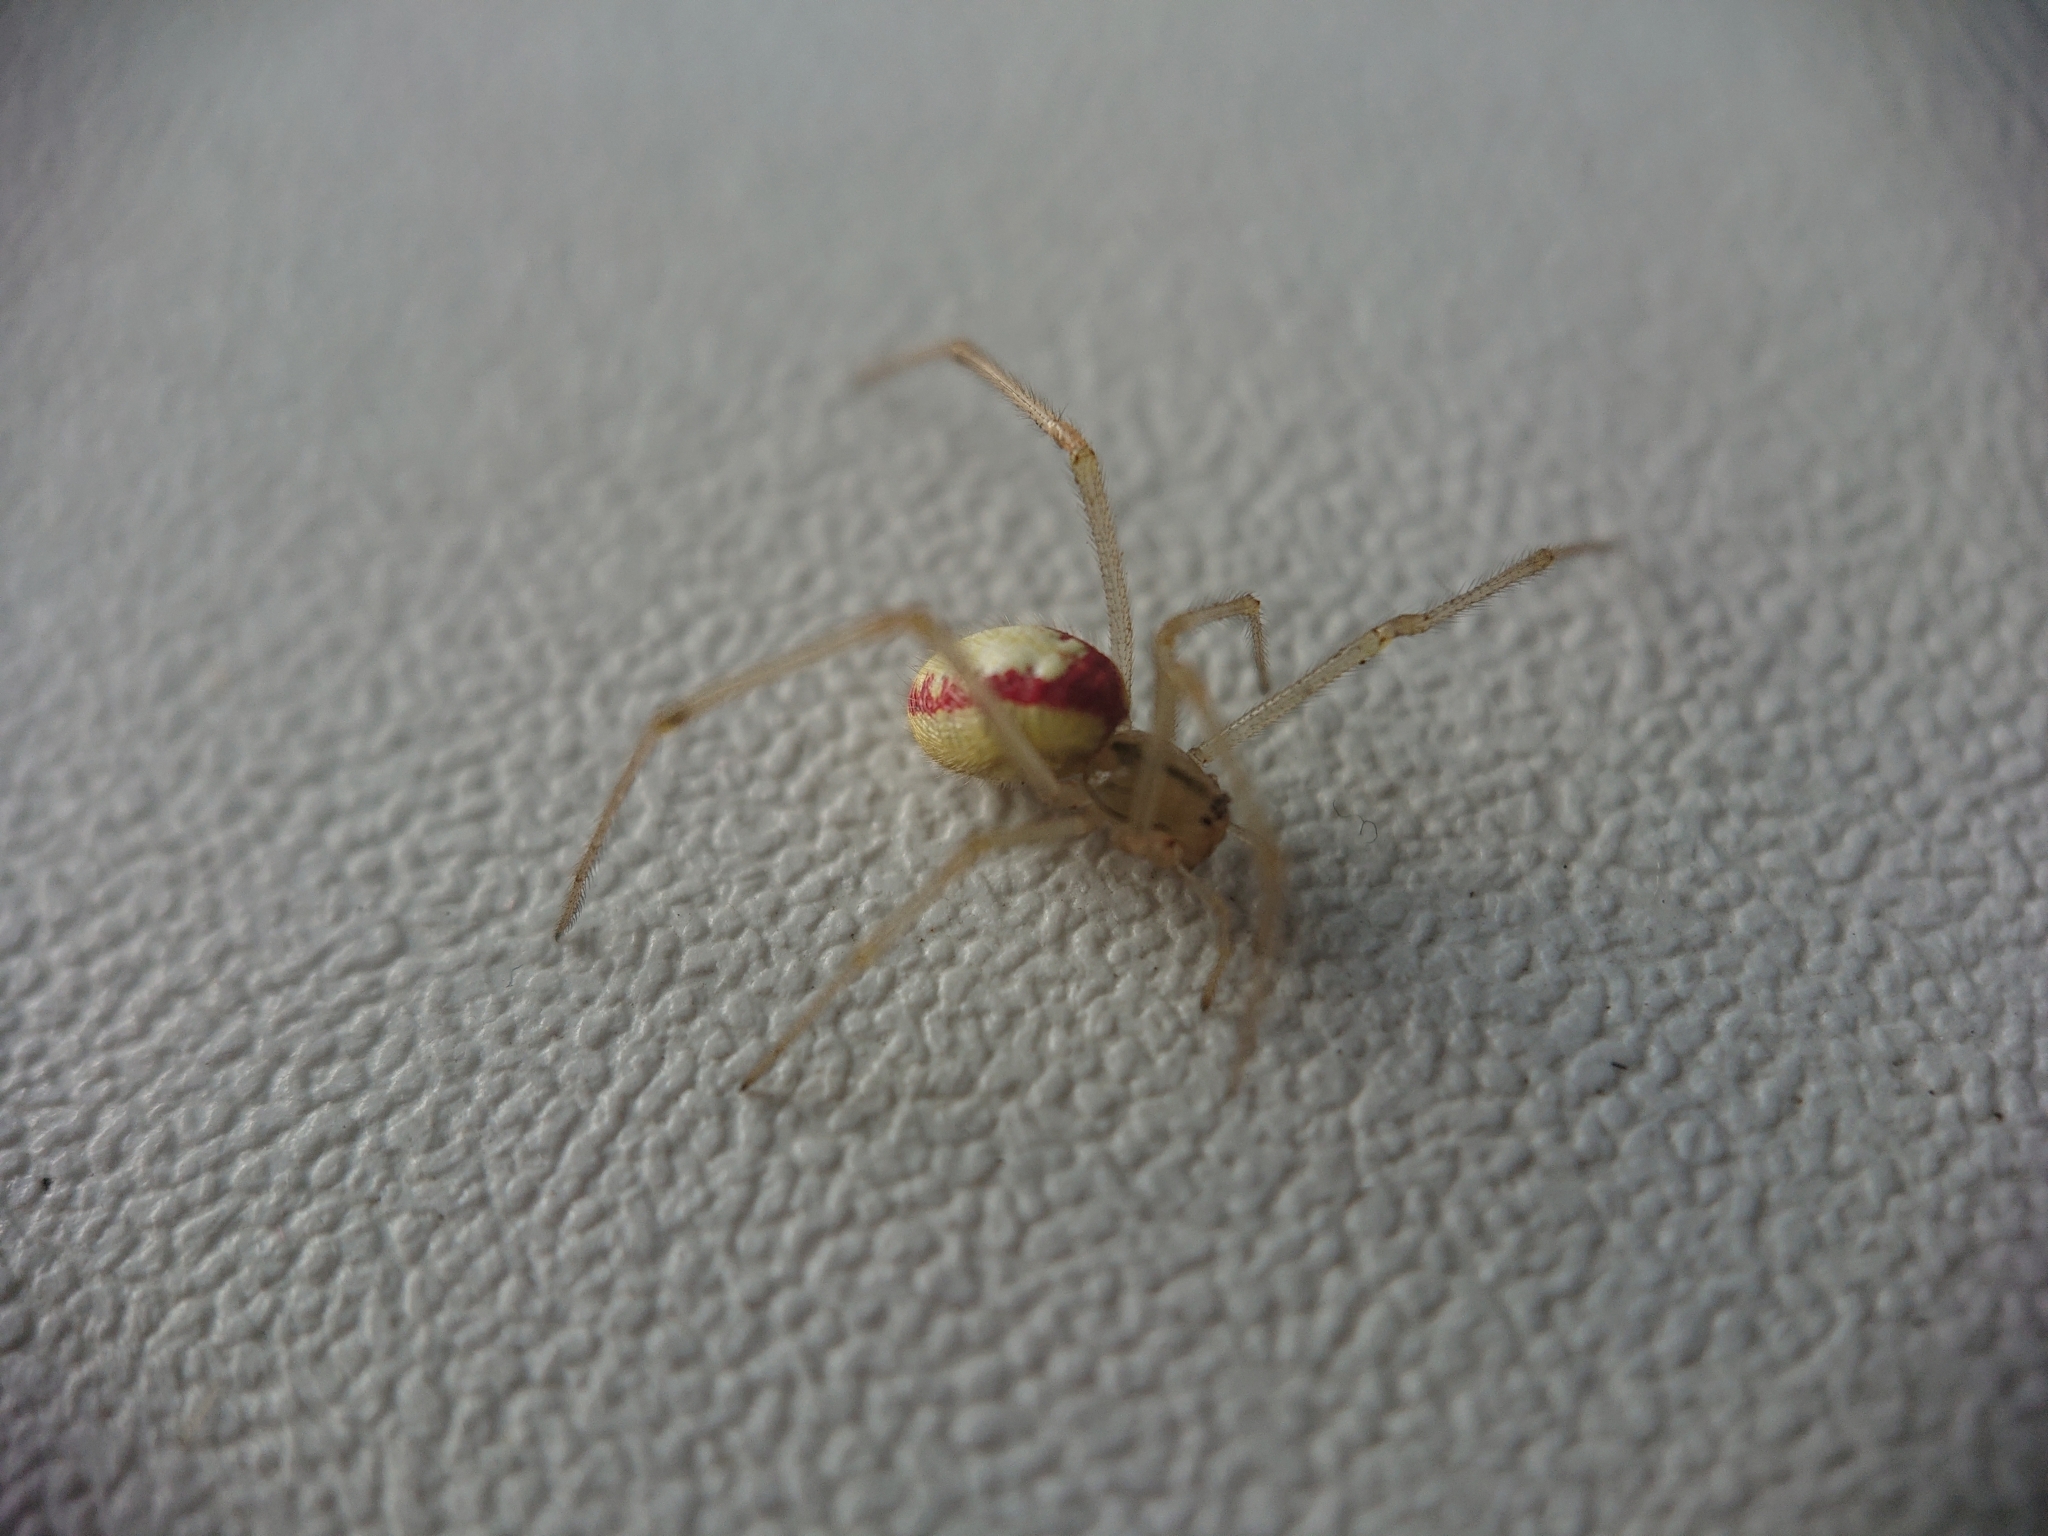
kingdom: Animalia
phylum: Arthropoda
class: Arachnida
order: Araneae
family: Theridiidae
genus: Enoplognatha
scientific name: Enoplognatha ovata
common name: Common candy-striped spider
